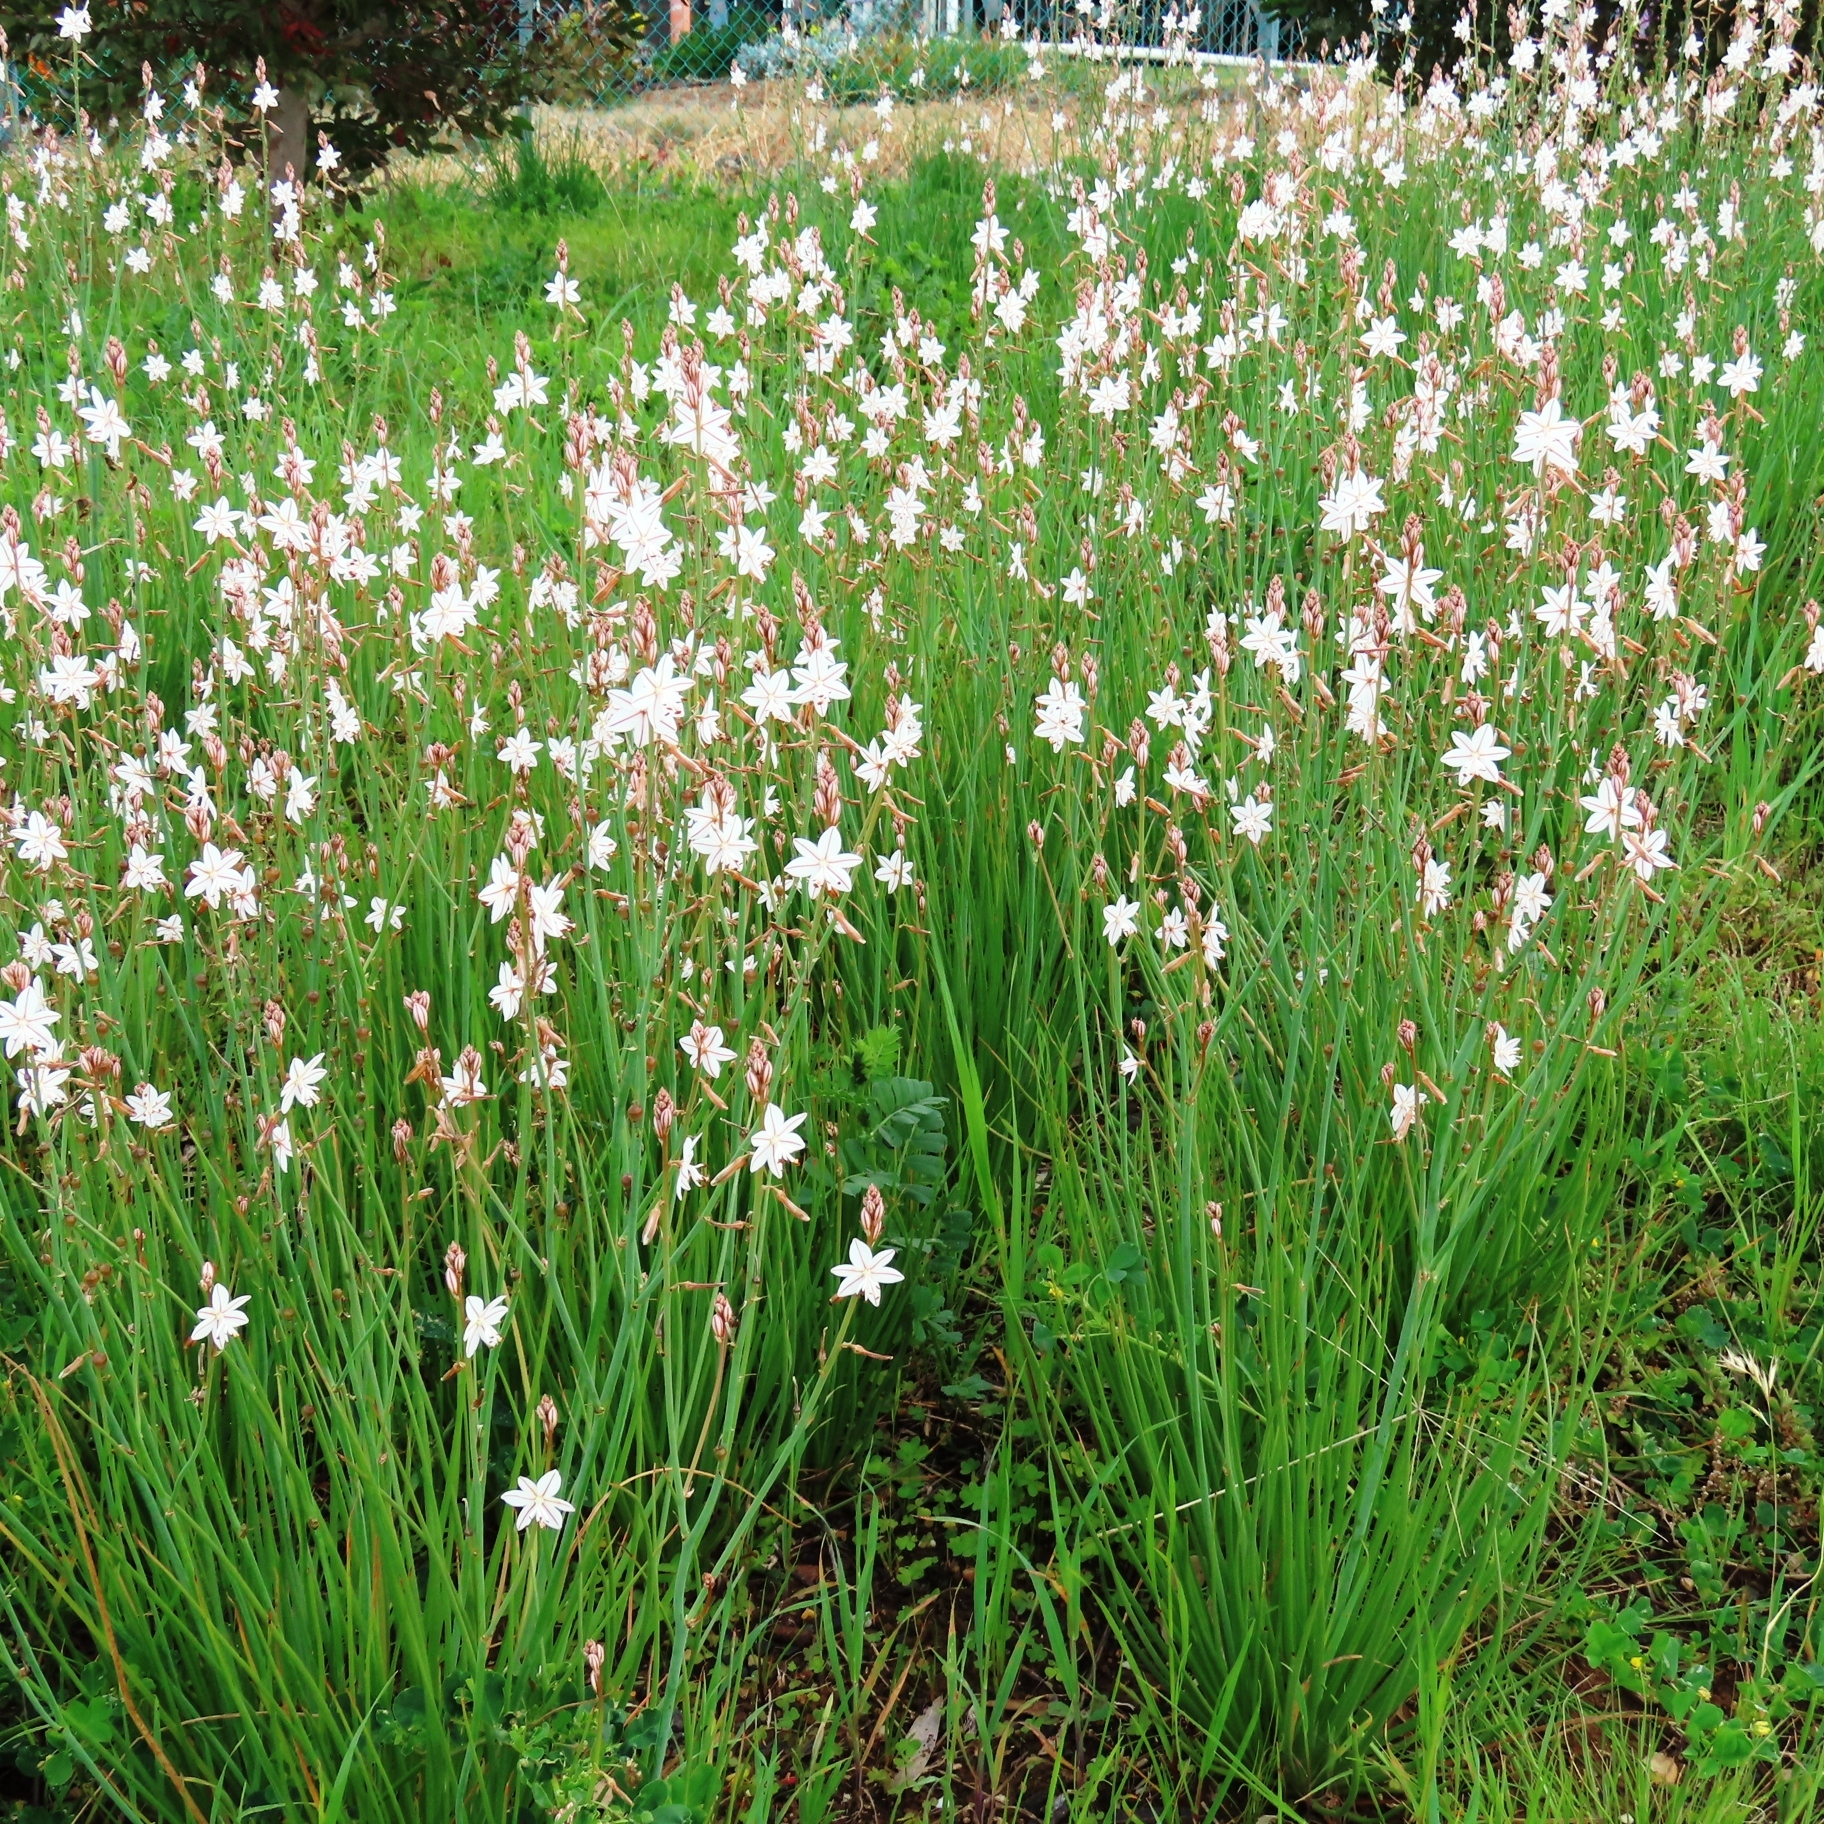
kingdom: Plantae
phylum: Tracheophyta
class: Liliopsida
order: Asparagales
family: Asphodelaceae
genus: Asphodelus
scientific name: Asphodelus fistulosus
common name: Onionweed
